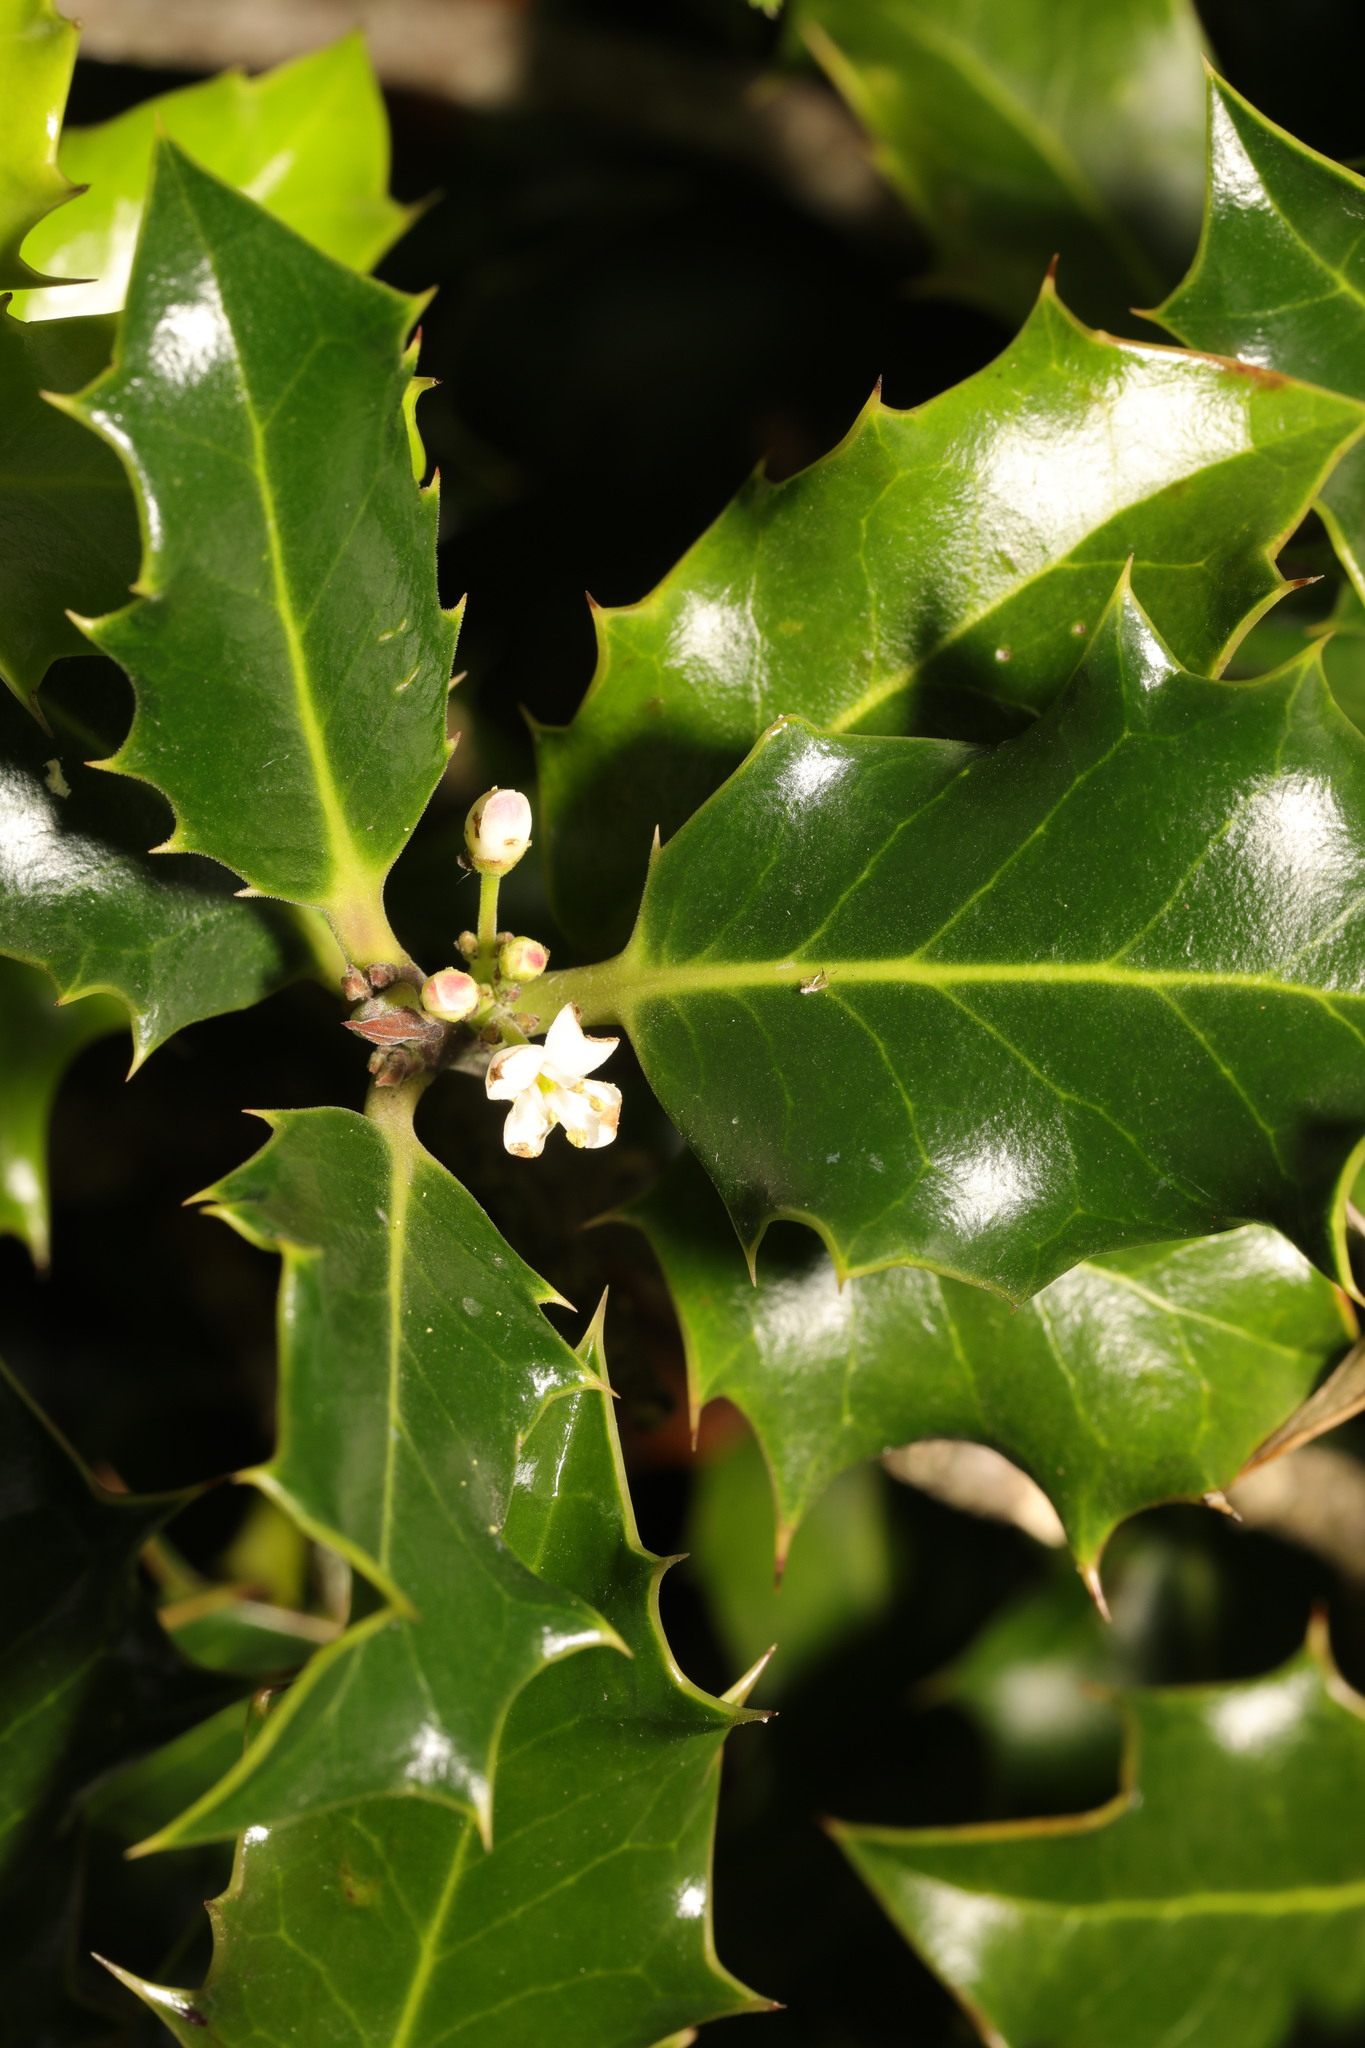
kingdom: Plantae
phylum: Tracheophyta
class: Magnoliopsida
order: Aquifoliales
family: Aquifoliaceae
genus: Ilex
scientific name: Ilex aquifolium
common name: English holly
